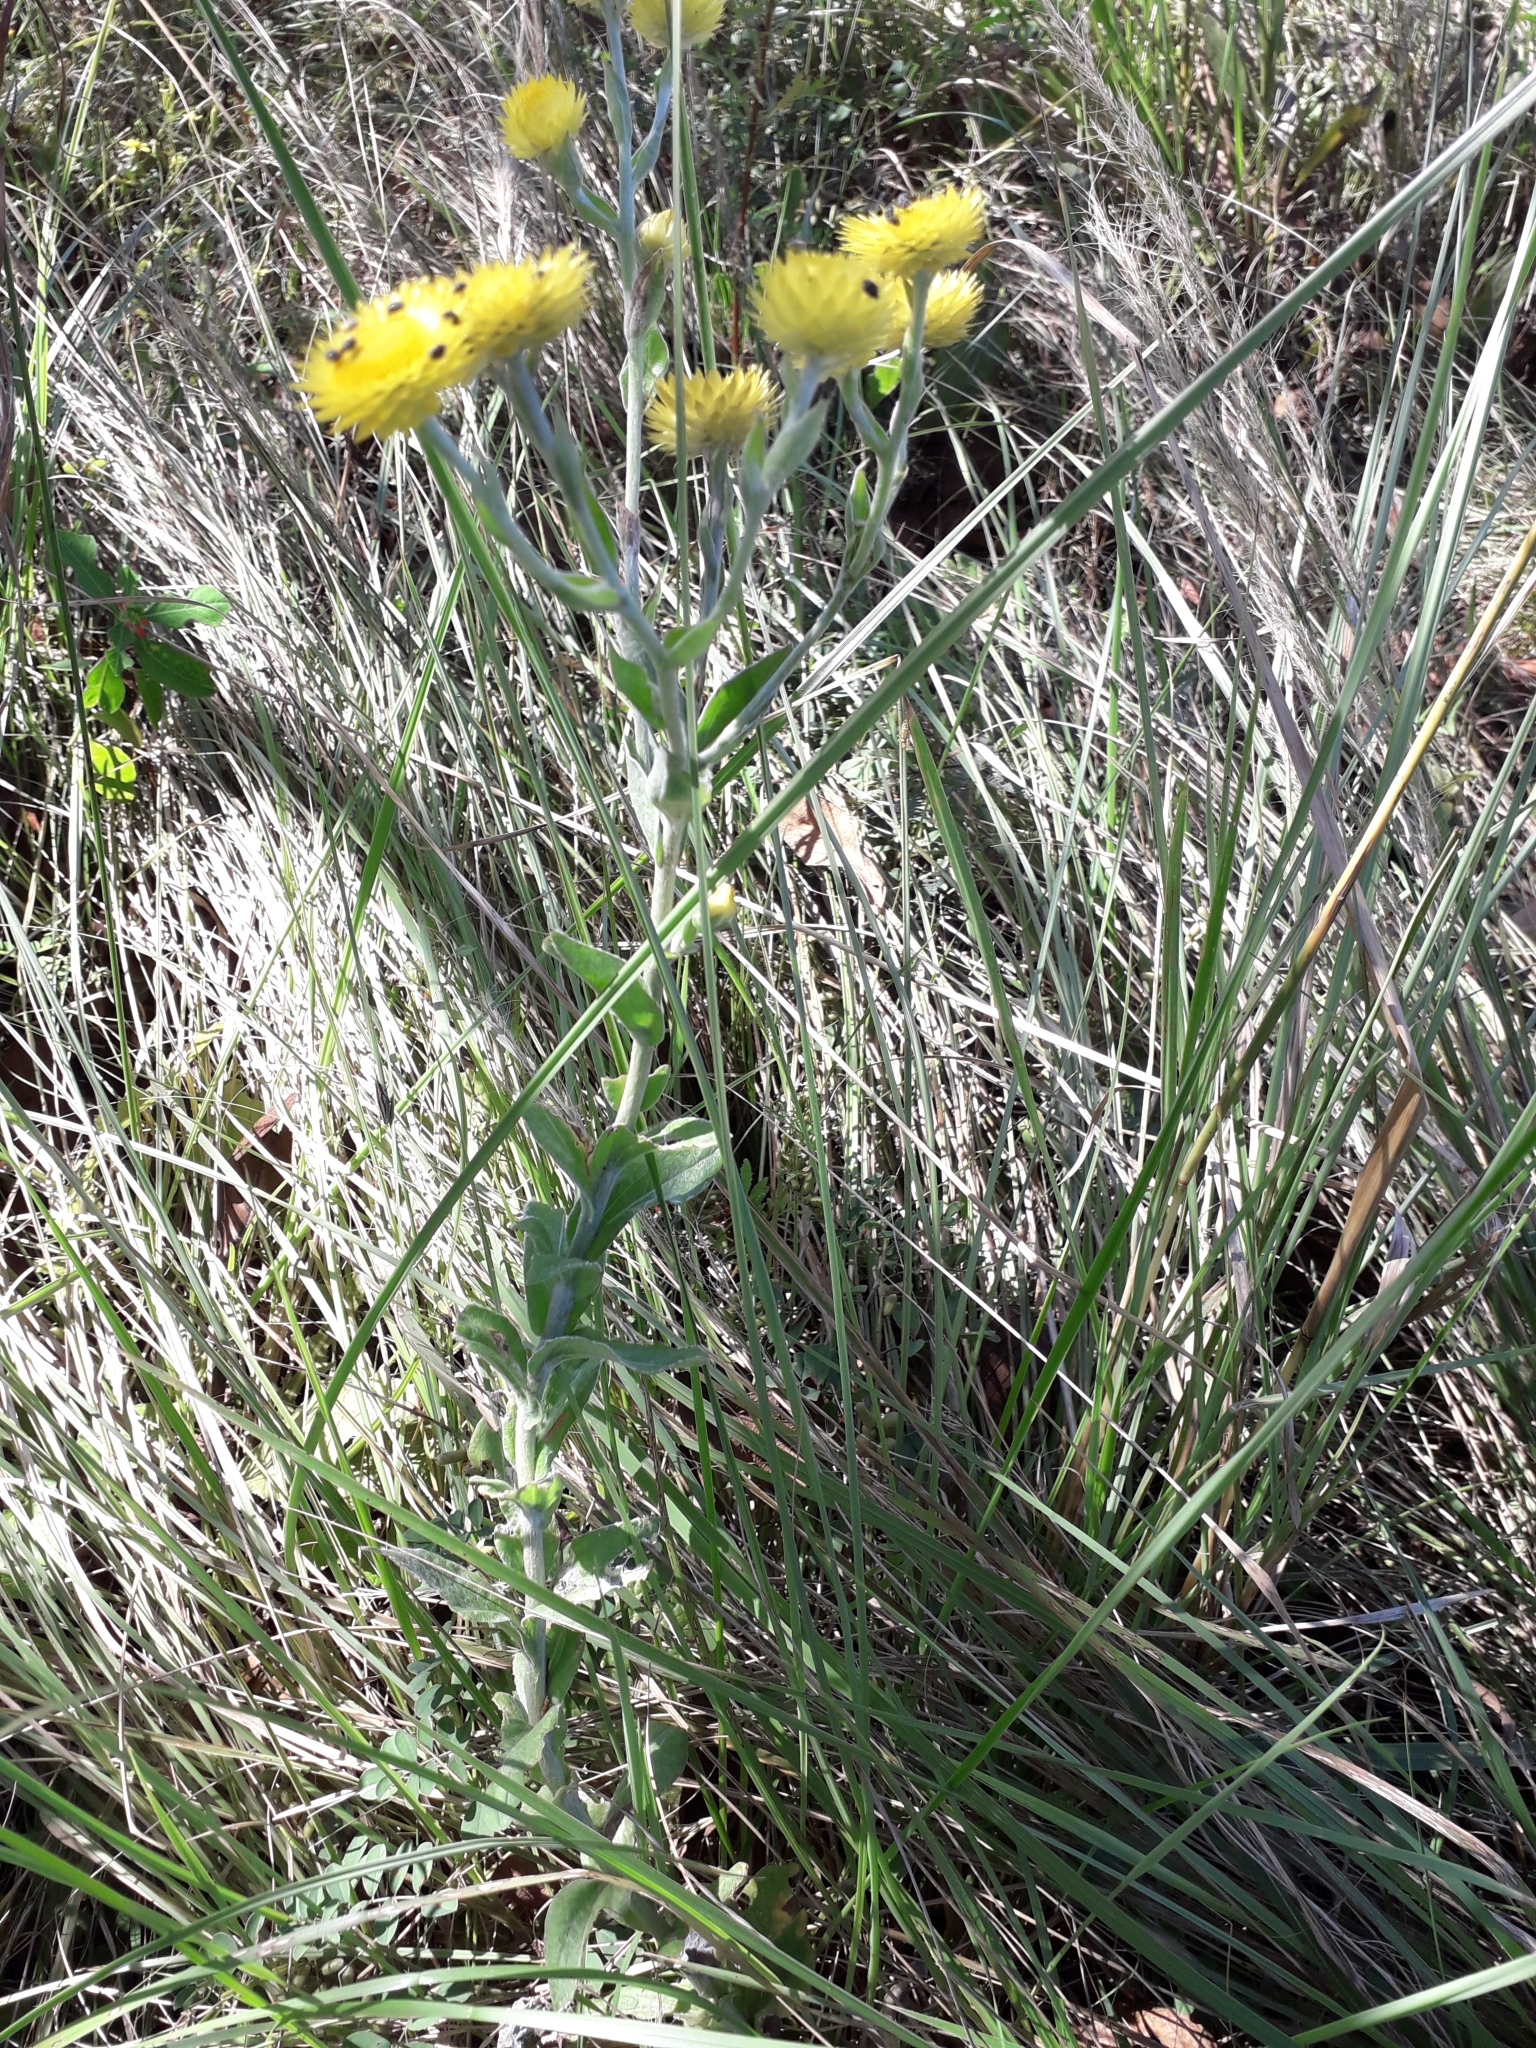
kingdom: Plantae
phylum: Tracheophyta
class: Magnoliopsida
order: Asterales
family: Asteraceae
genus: Helichrysum
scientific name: Helichrysum decorum
